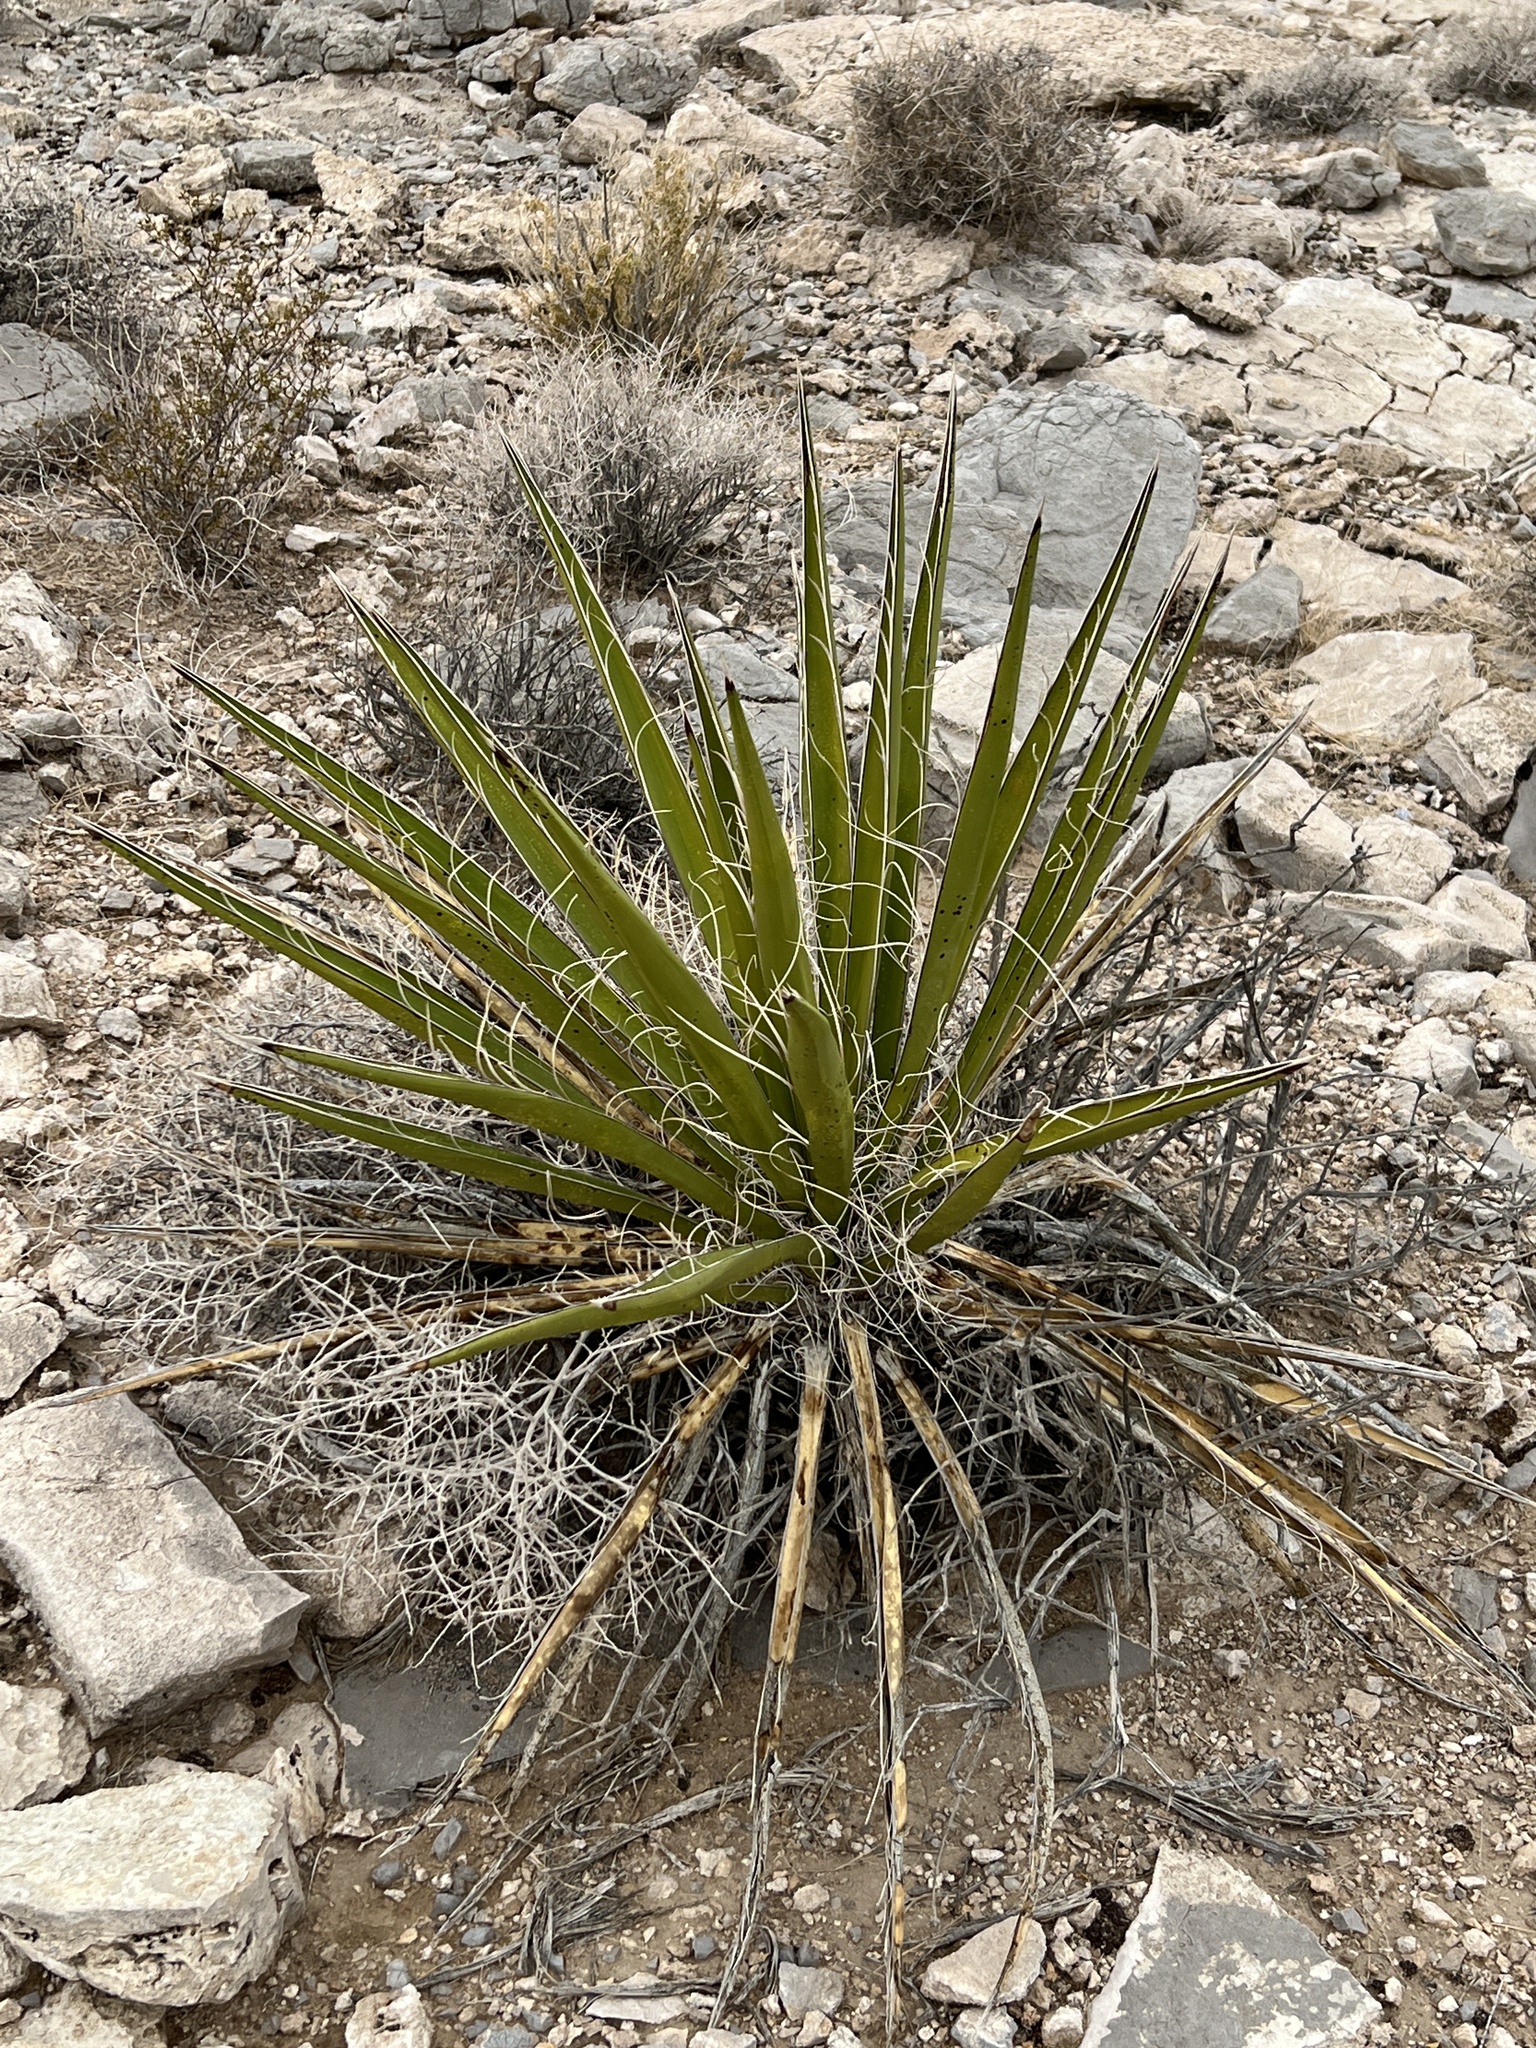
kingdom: Plantae
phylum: Tracheophyta
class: Liliopsida
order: Asparagales
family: Asparagaceae
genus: Yucca
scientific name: Yucca schidigera
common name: Mojave yucca
